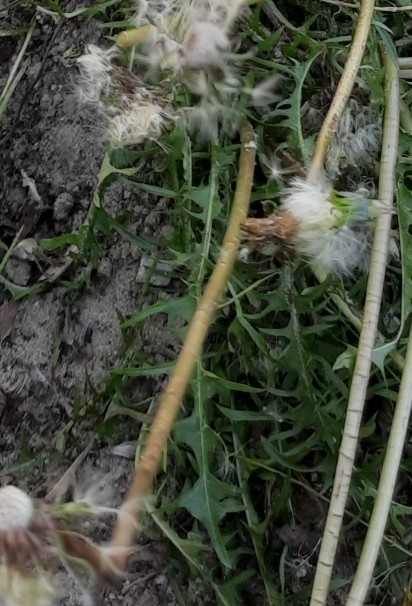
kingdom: Plantae
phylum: Tracheophyta
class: Magnoliopsida
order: Asterales
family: Asteraceae
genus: Taraxacum
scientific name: Taraxacum scariosum
